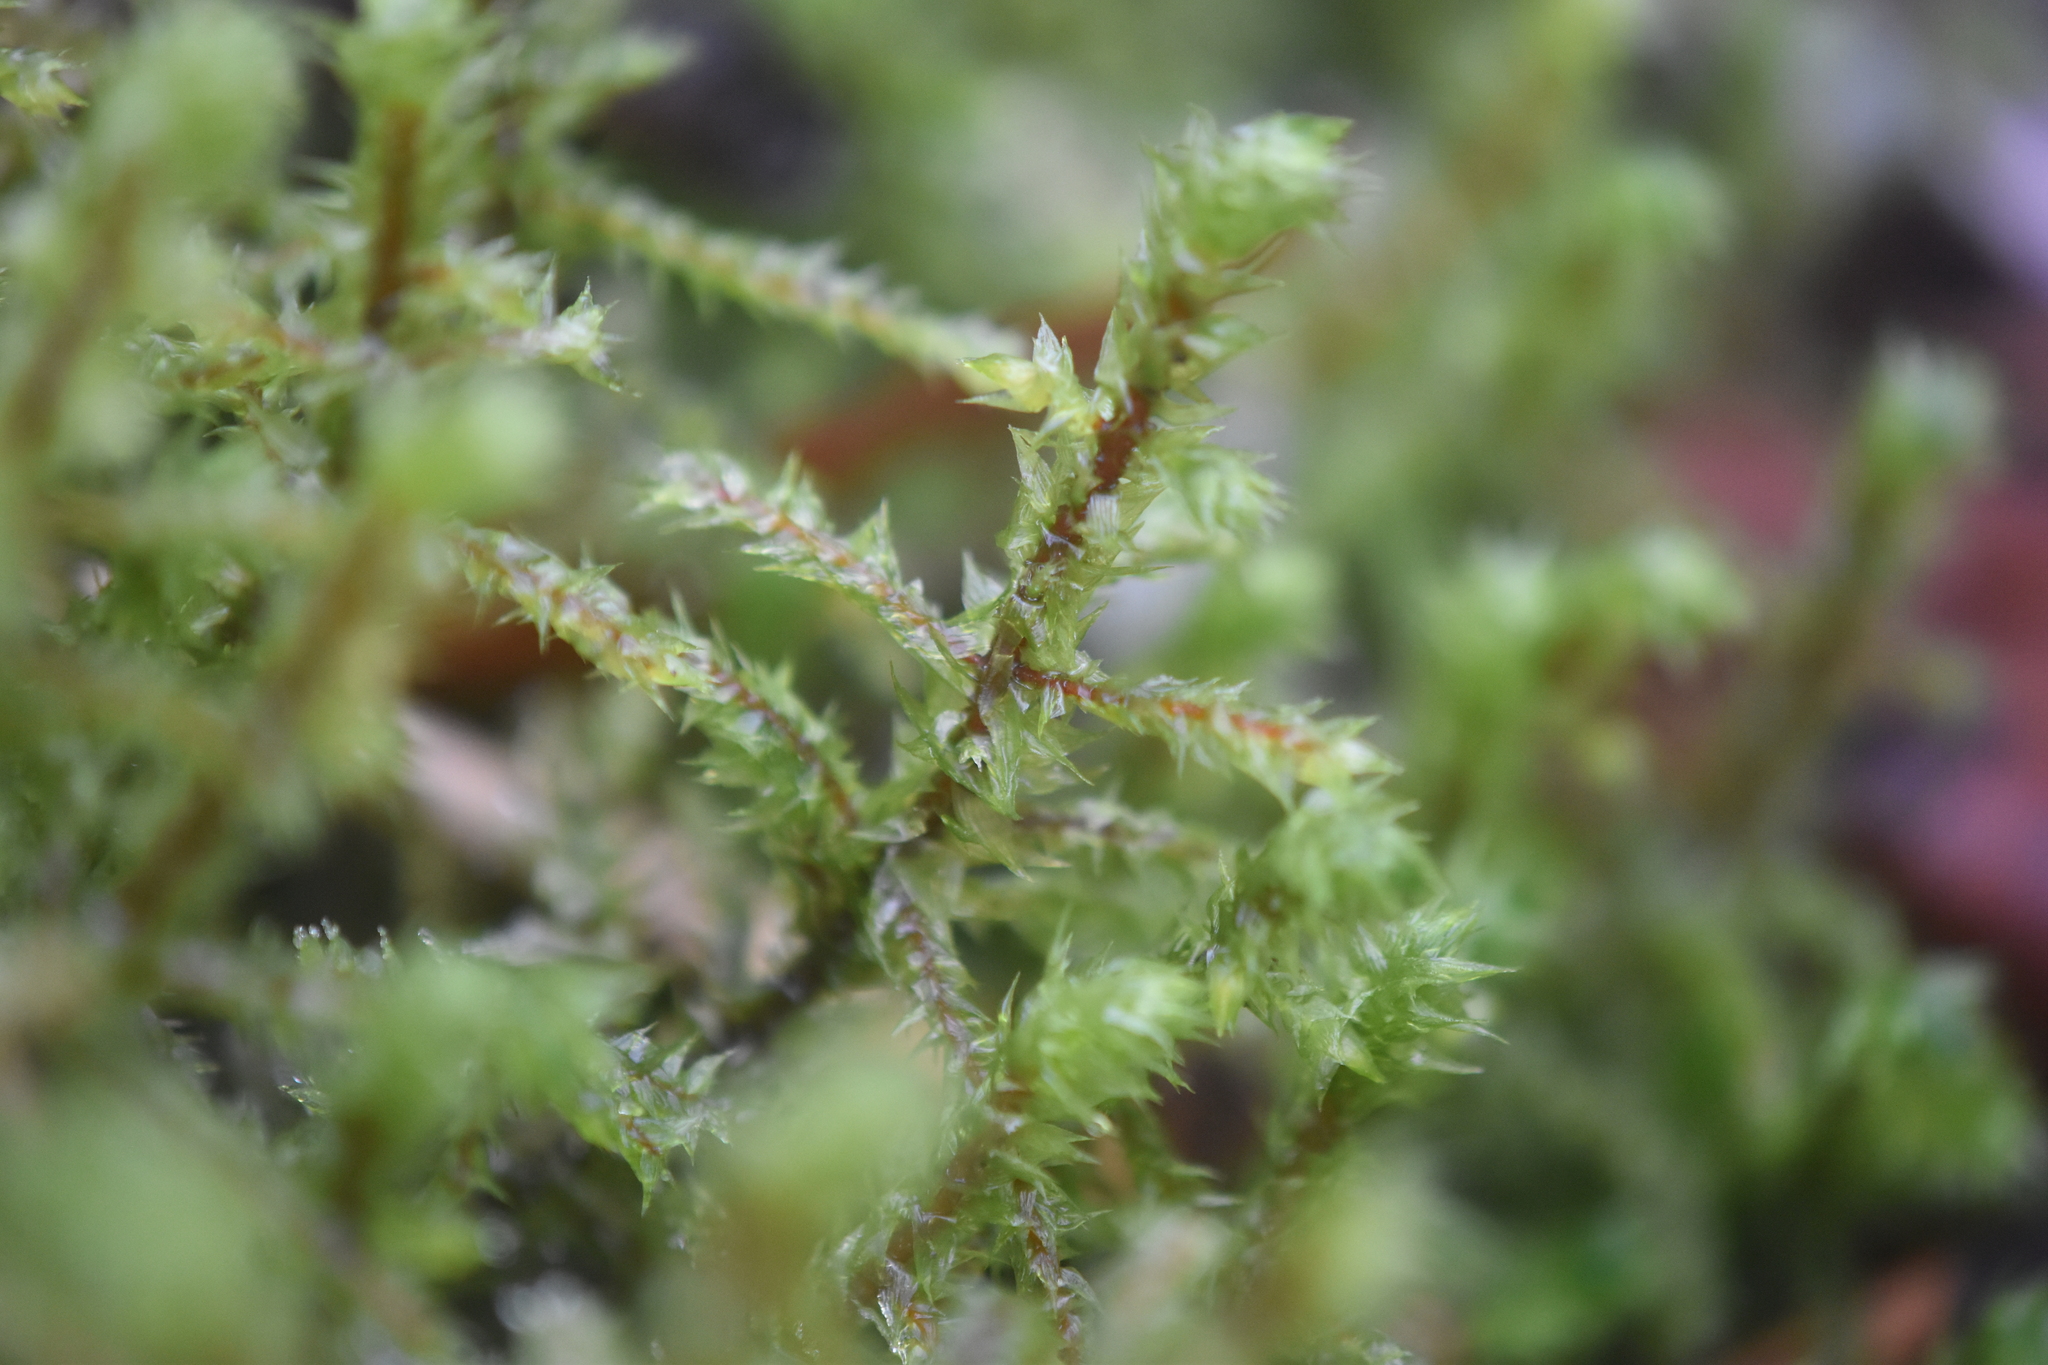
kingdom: Plantae
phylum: Bryophyta
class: Bryopsida
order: Hypnales
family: Hylocomiaceae
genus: Hylocomiadelphus
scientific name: Hylocomiadelphus triquetrus
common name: Rough goose neck moss
